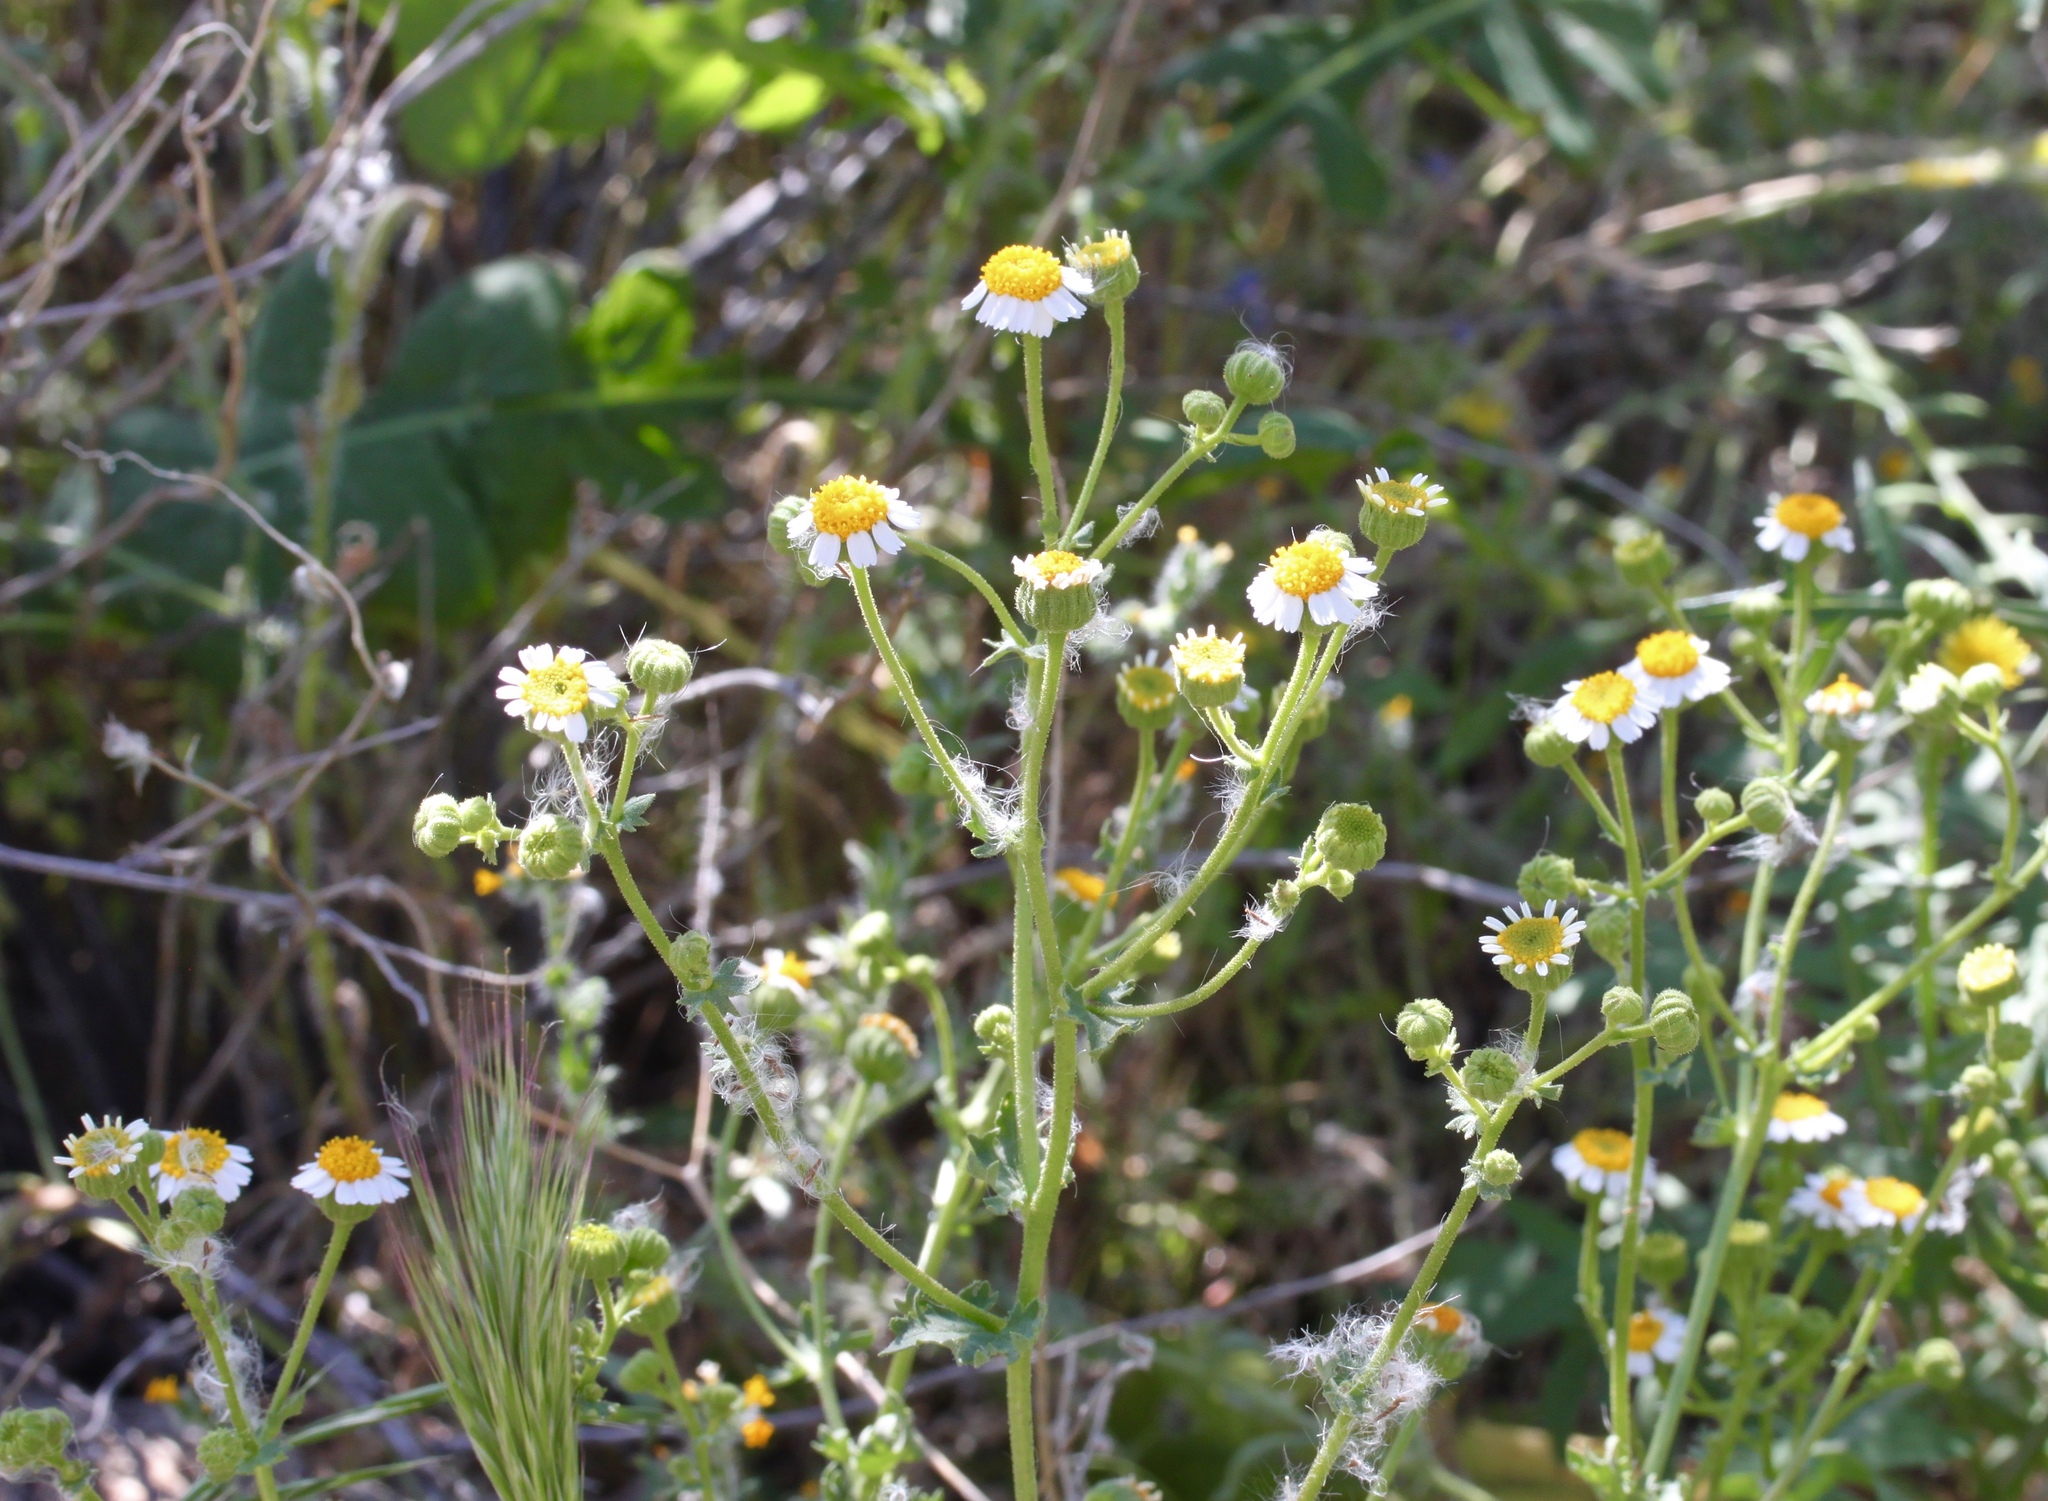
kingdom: Plantae
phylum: Tracheophyta
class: Magnoliopsida
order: Asterales
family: Asteraceae
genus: Laphamia
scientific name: Laphamia emoryi
